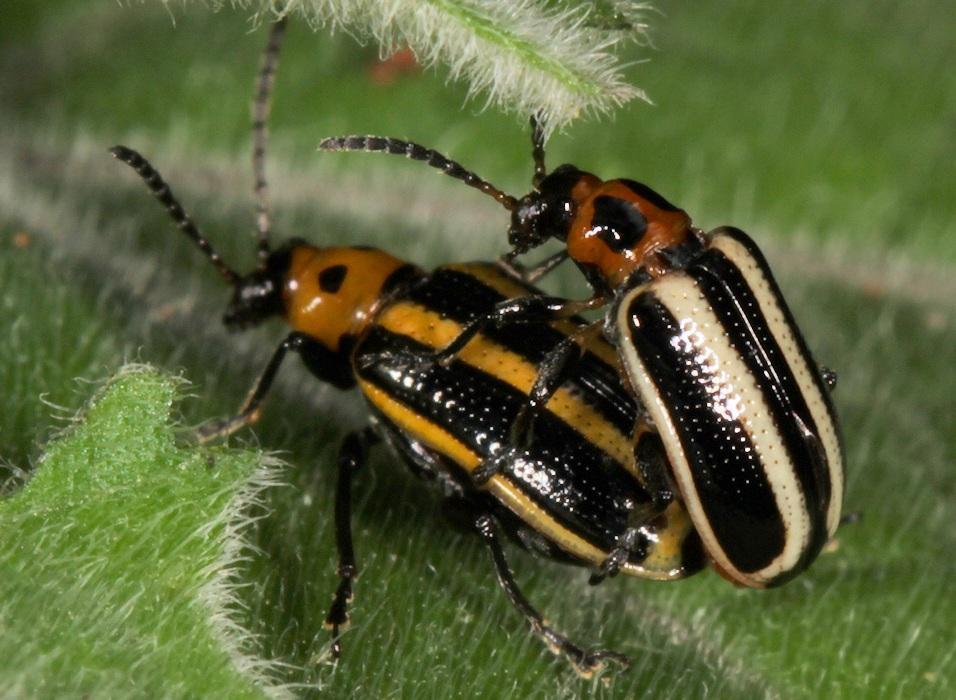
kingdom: Animalia
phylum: Arthropoda
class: Insecta
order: Coleoptera
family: Chrysomelidae
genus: Lema
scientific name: Lema bilineata
